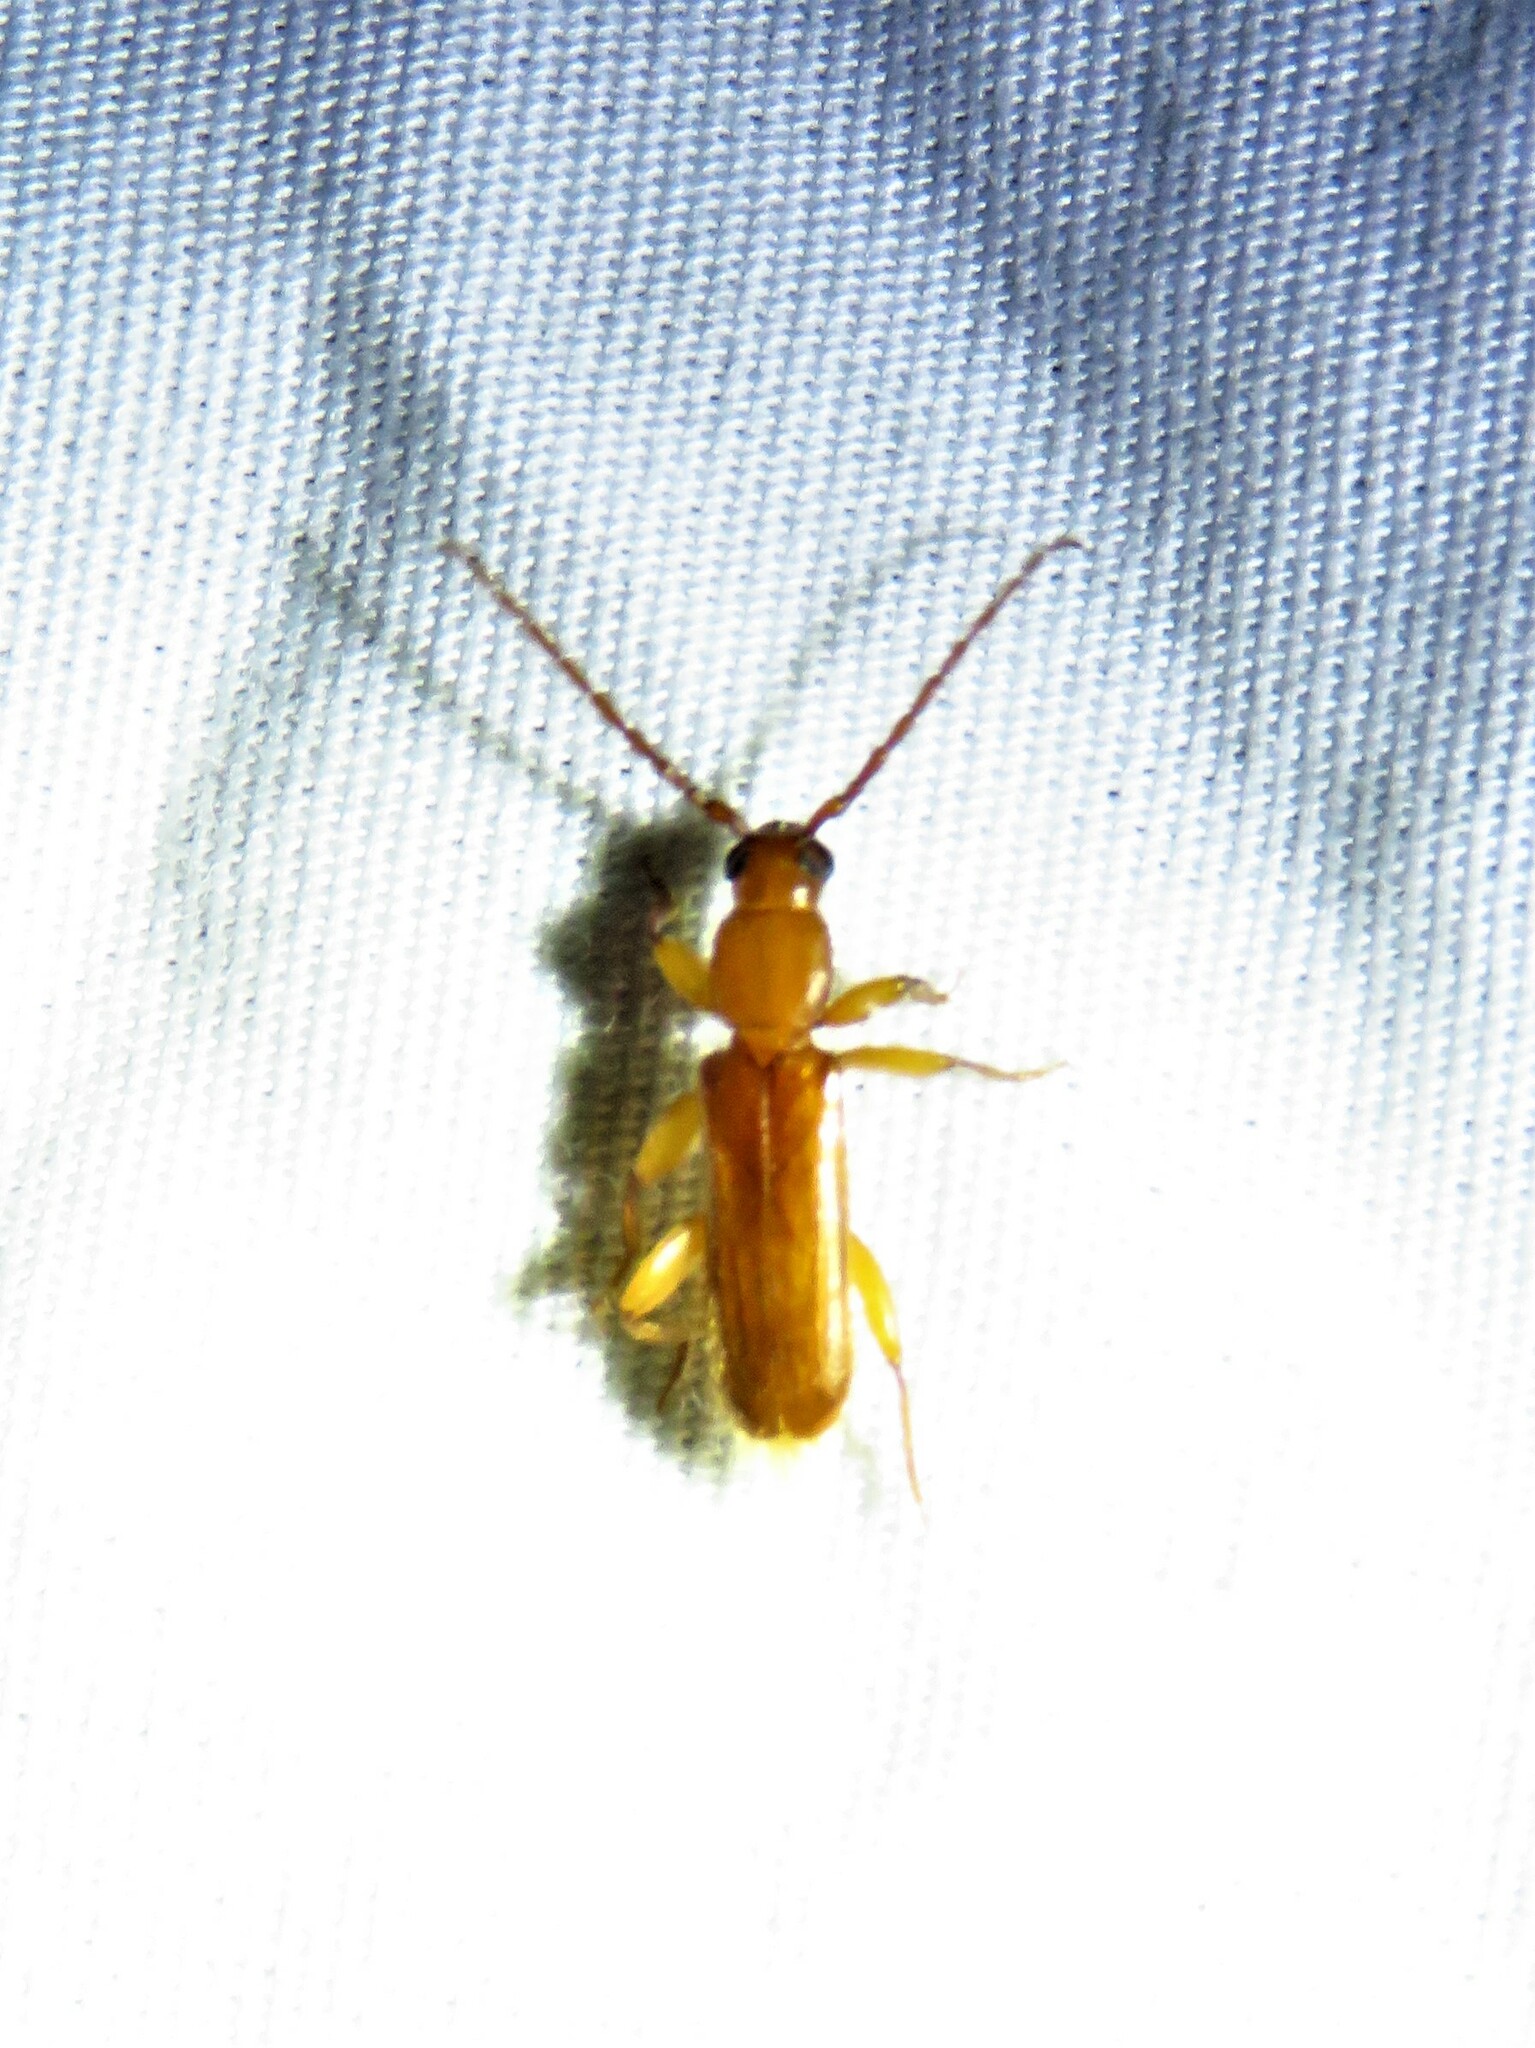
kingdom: Animalia
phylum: Arthropoda
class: Insecta
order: Coleoptera
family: Cerambycidae
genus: Smodicum
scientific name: Smodicum cucujiforme
